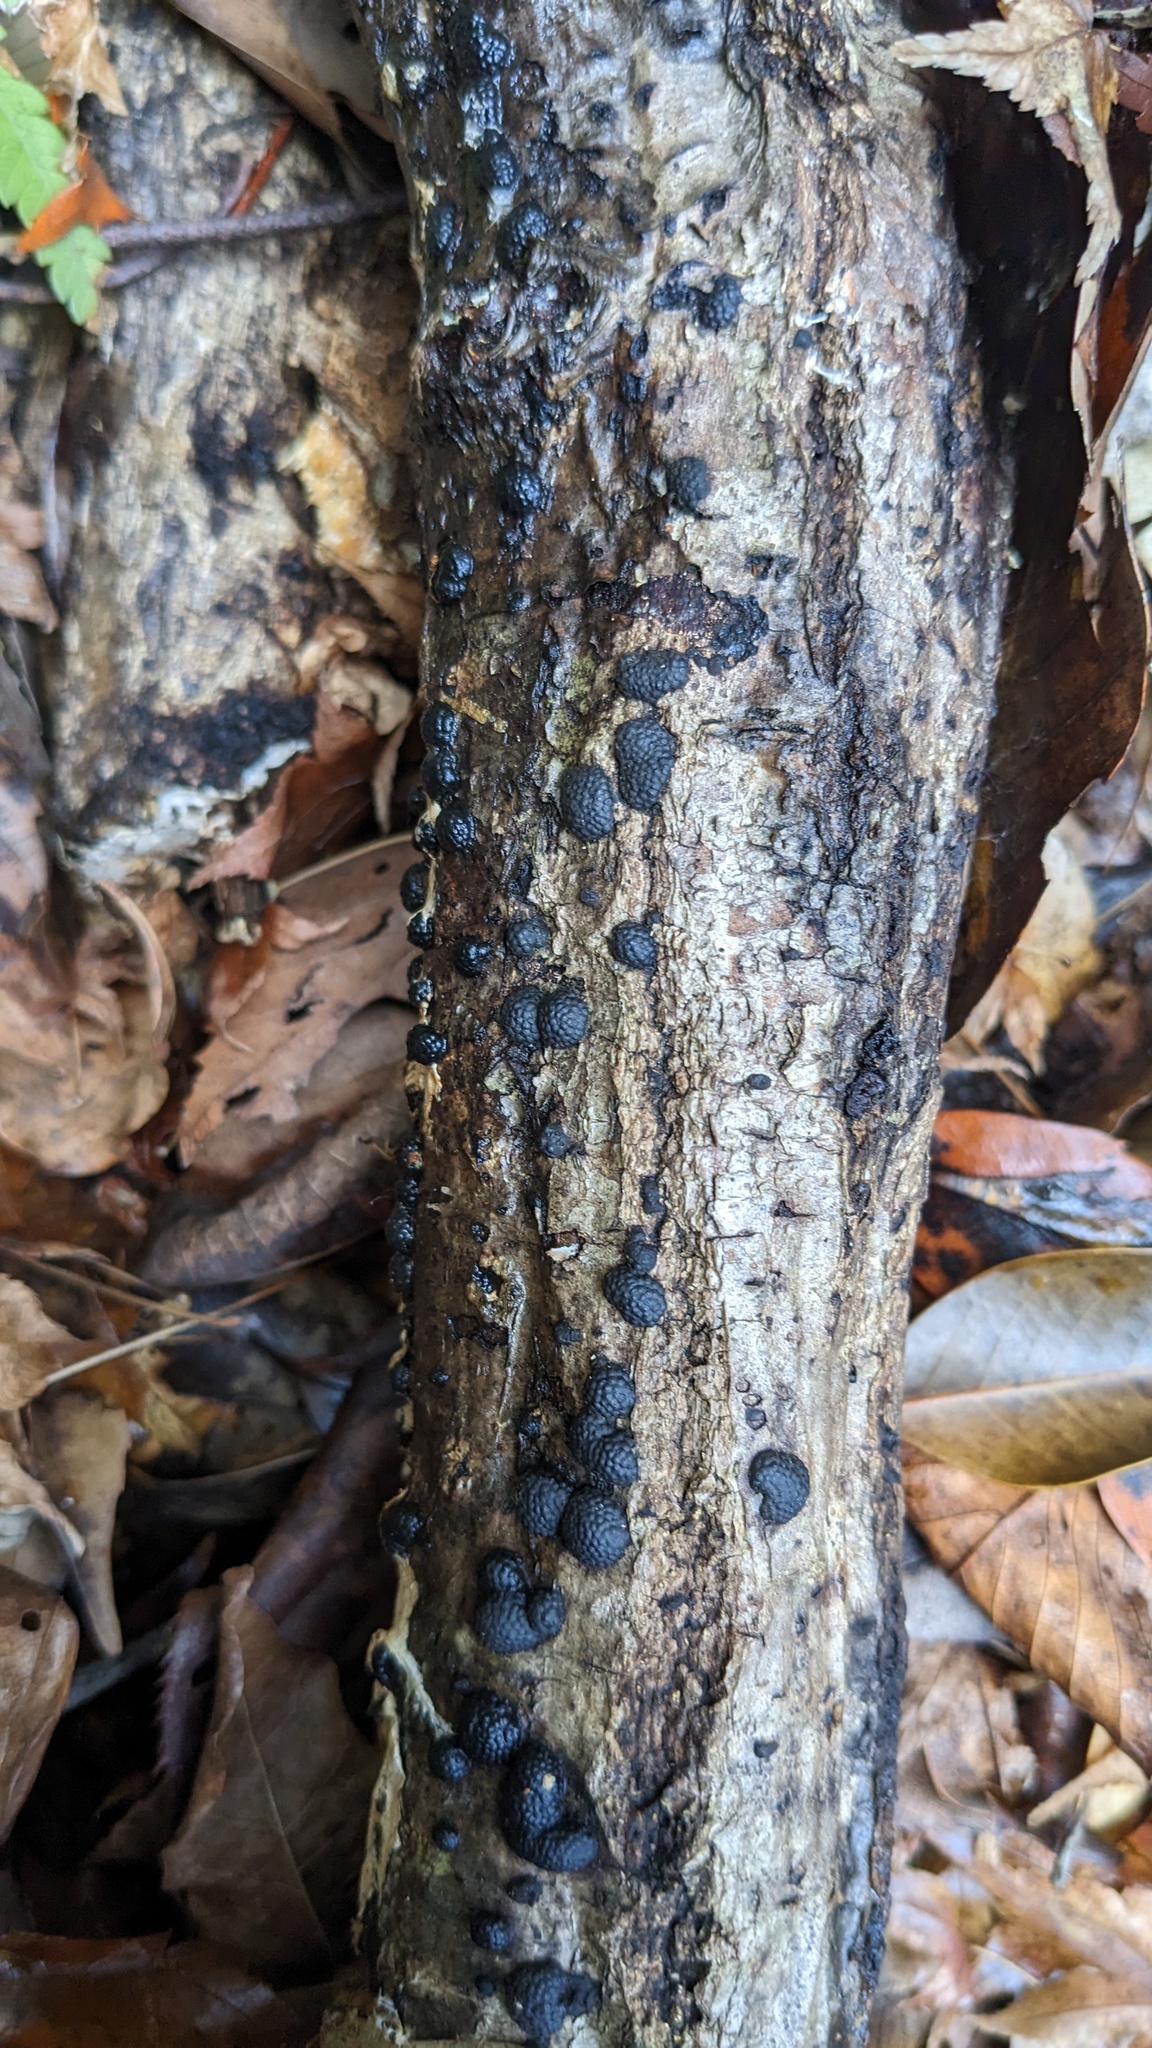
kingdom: Fungi
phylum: Ascomycota
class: Sordariomycetes
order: Xylariales
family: Hypoxylaceae
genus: Annulohypoxylon
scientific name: Annulohypoxylon truncatum
